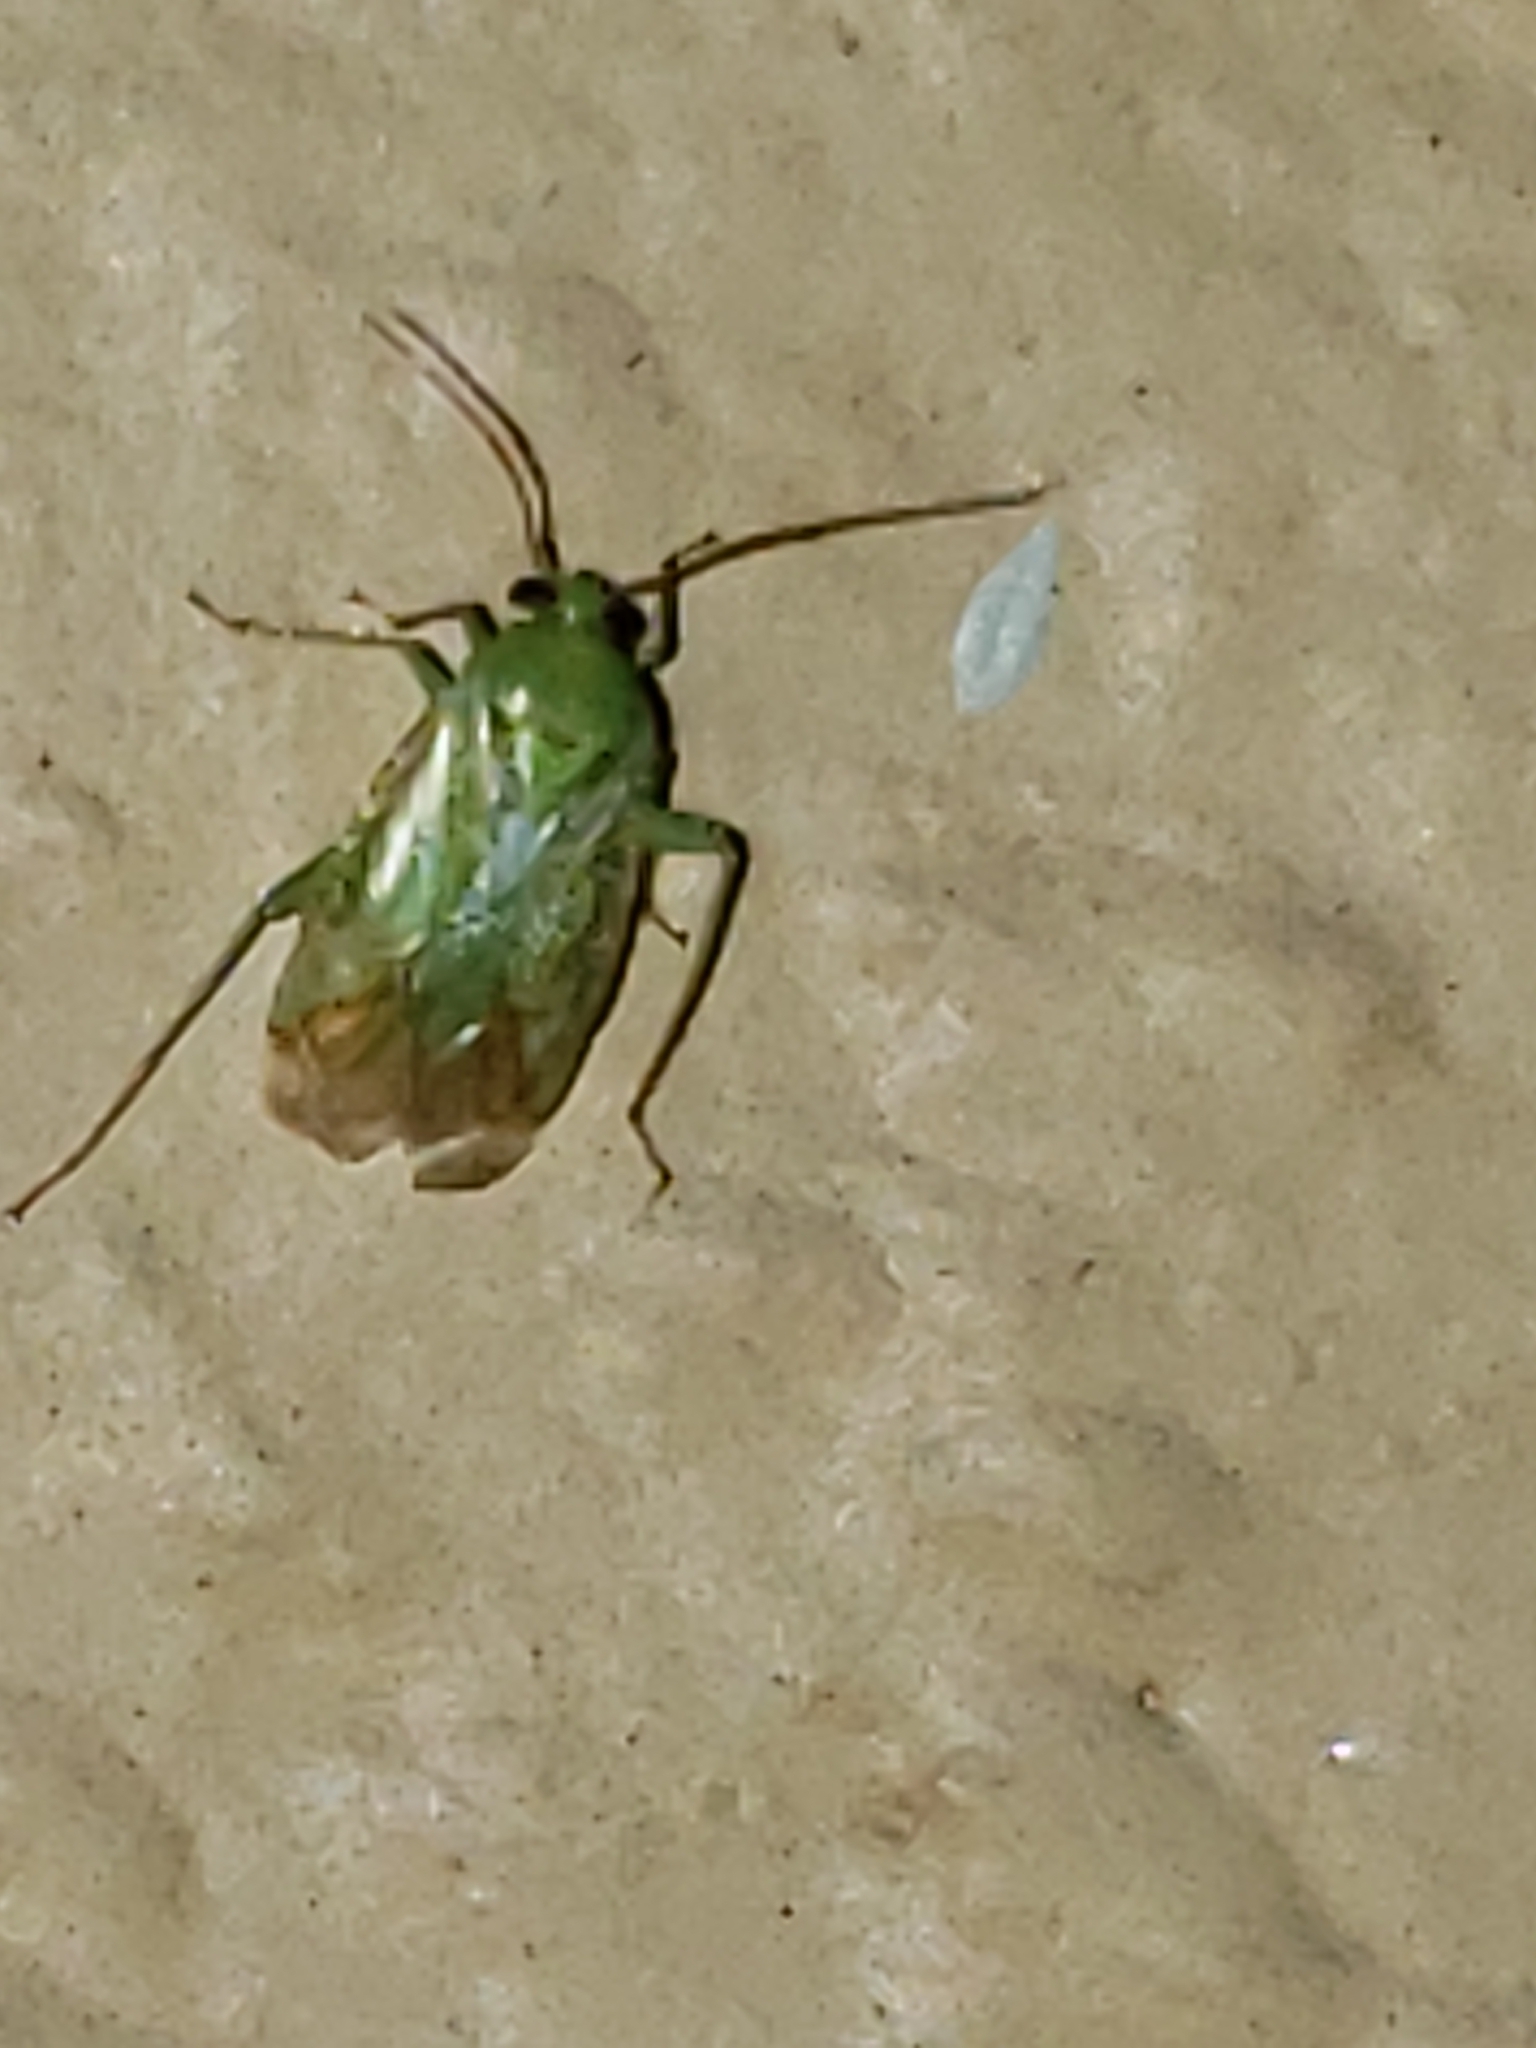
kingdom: Animalia
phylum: Arthropoda
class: Insecta
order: Hemiptera
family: Miridae
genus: Taylorilygus
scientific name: Taylorilygus apicalis
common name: Plant bug
